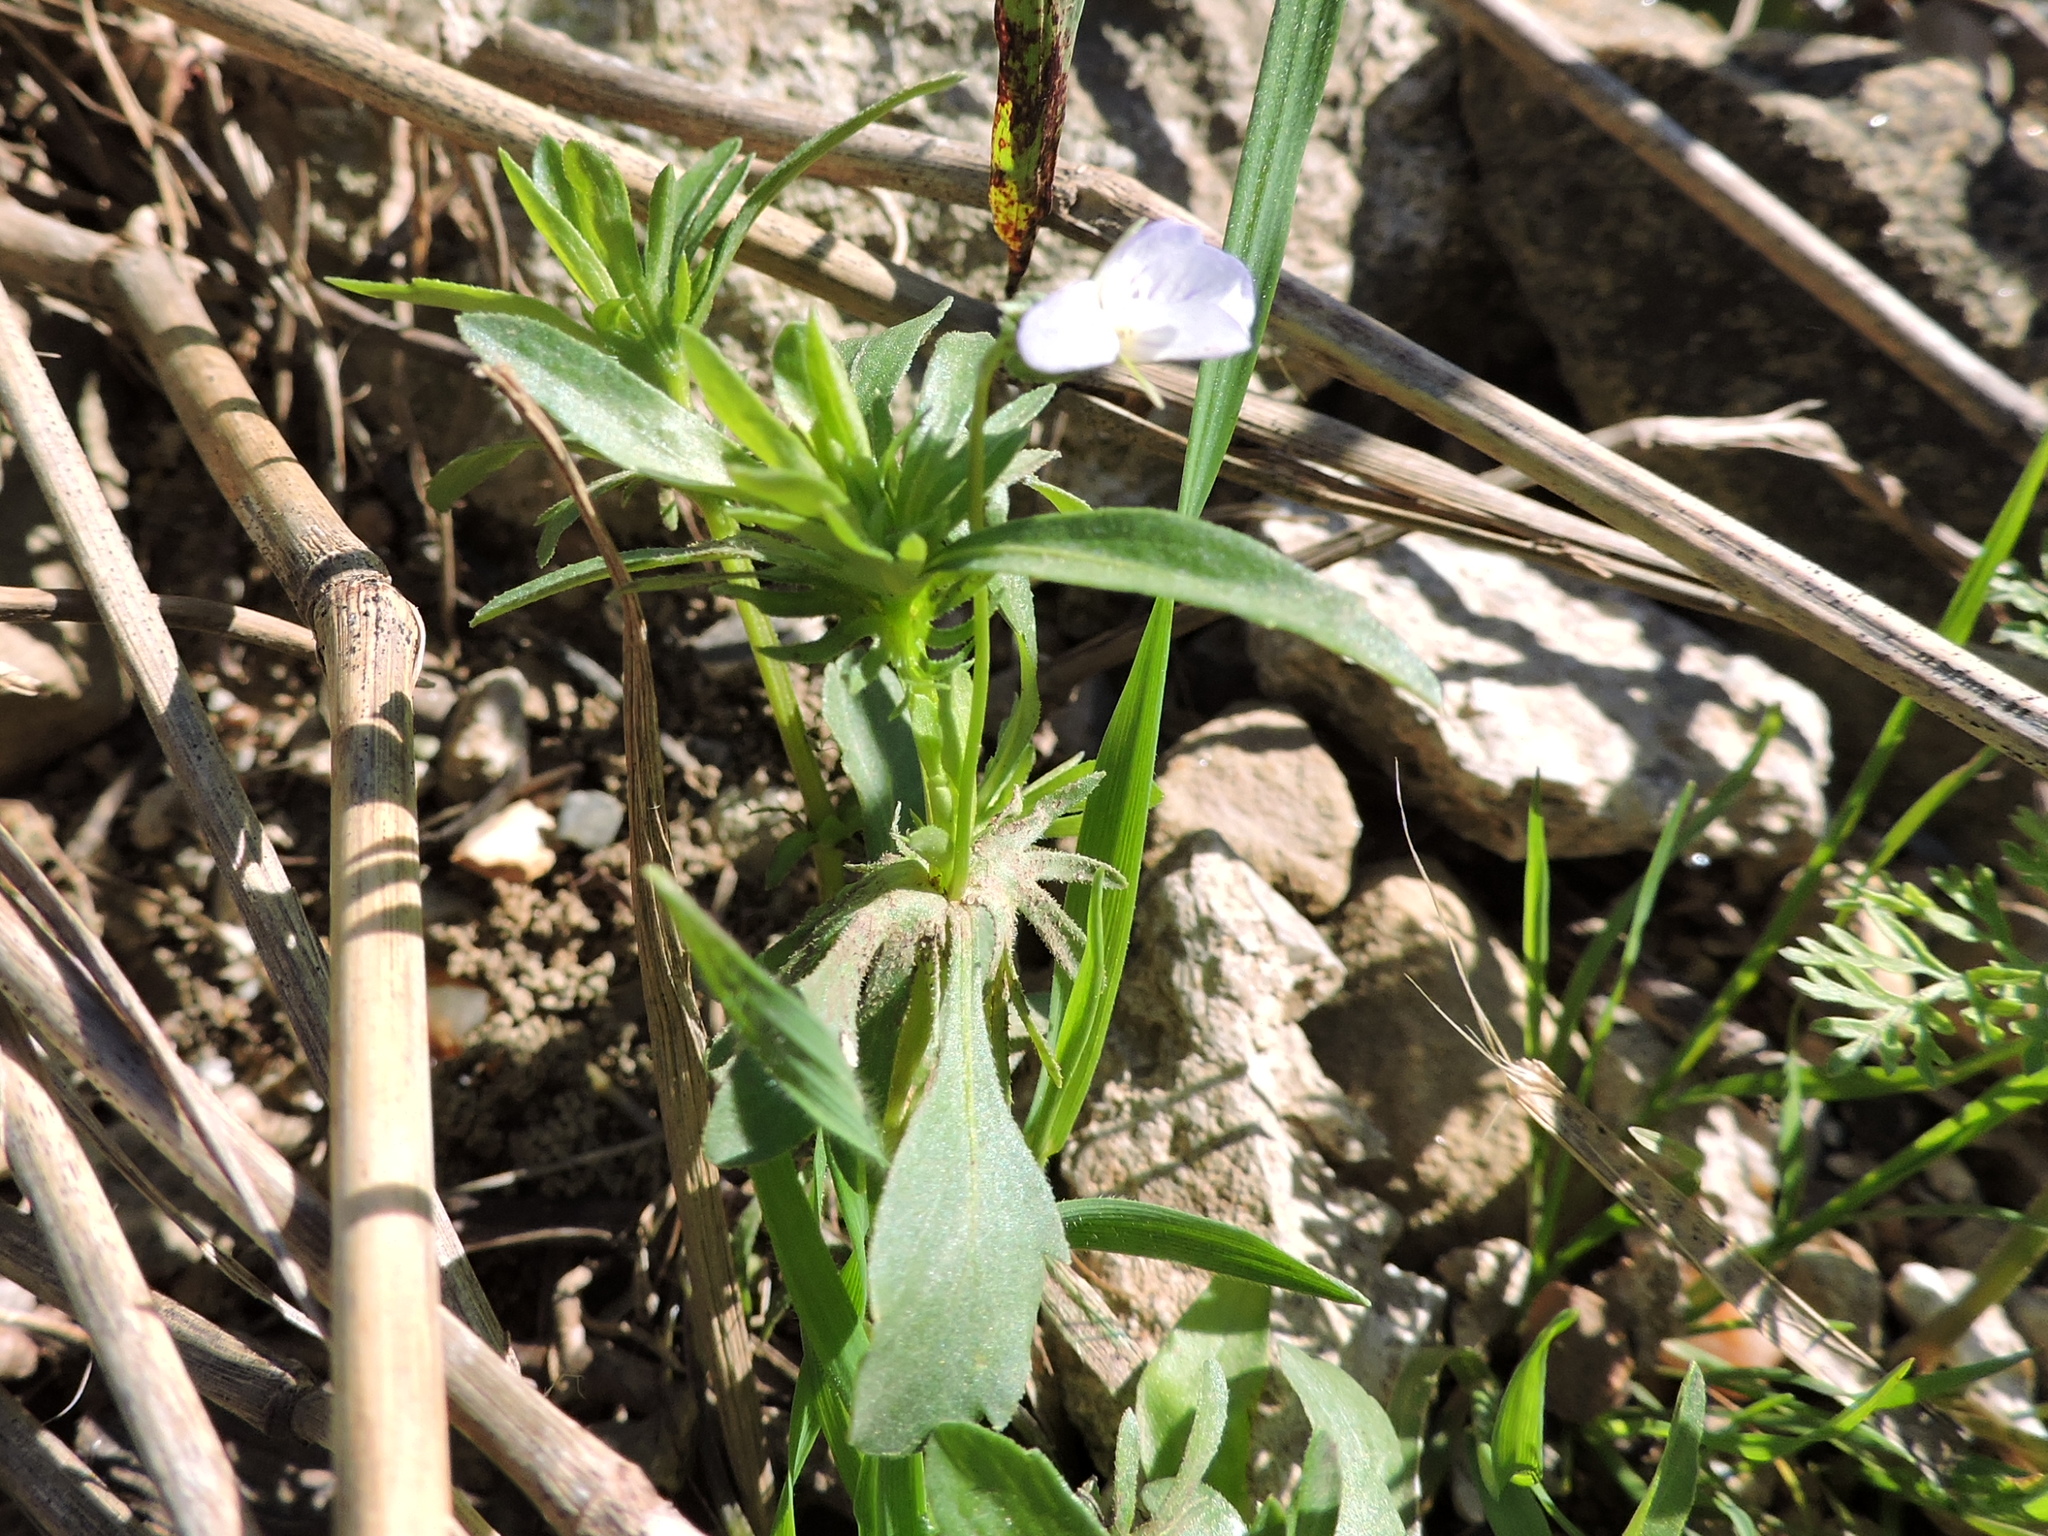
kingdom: Plantae
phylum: Tracheophyta
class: Magnoliopsida
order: Malpighiales
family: Violaceae
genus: Viola
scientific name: Viola rafinesquei
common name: American field pansy
